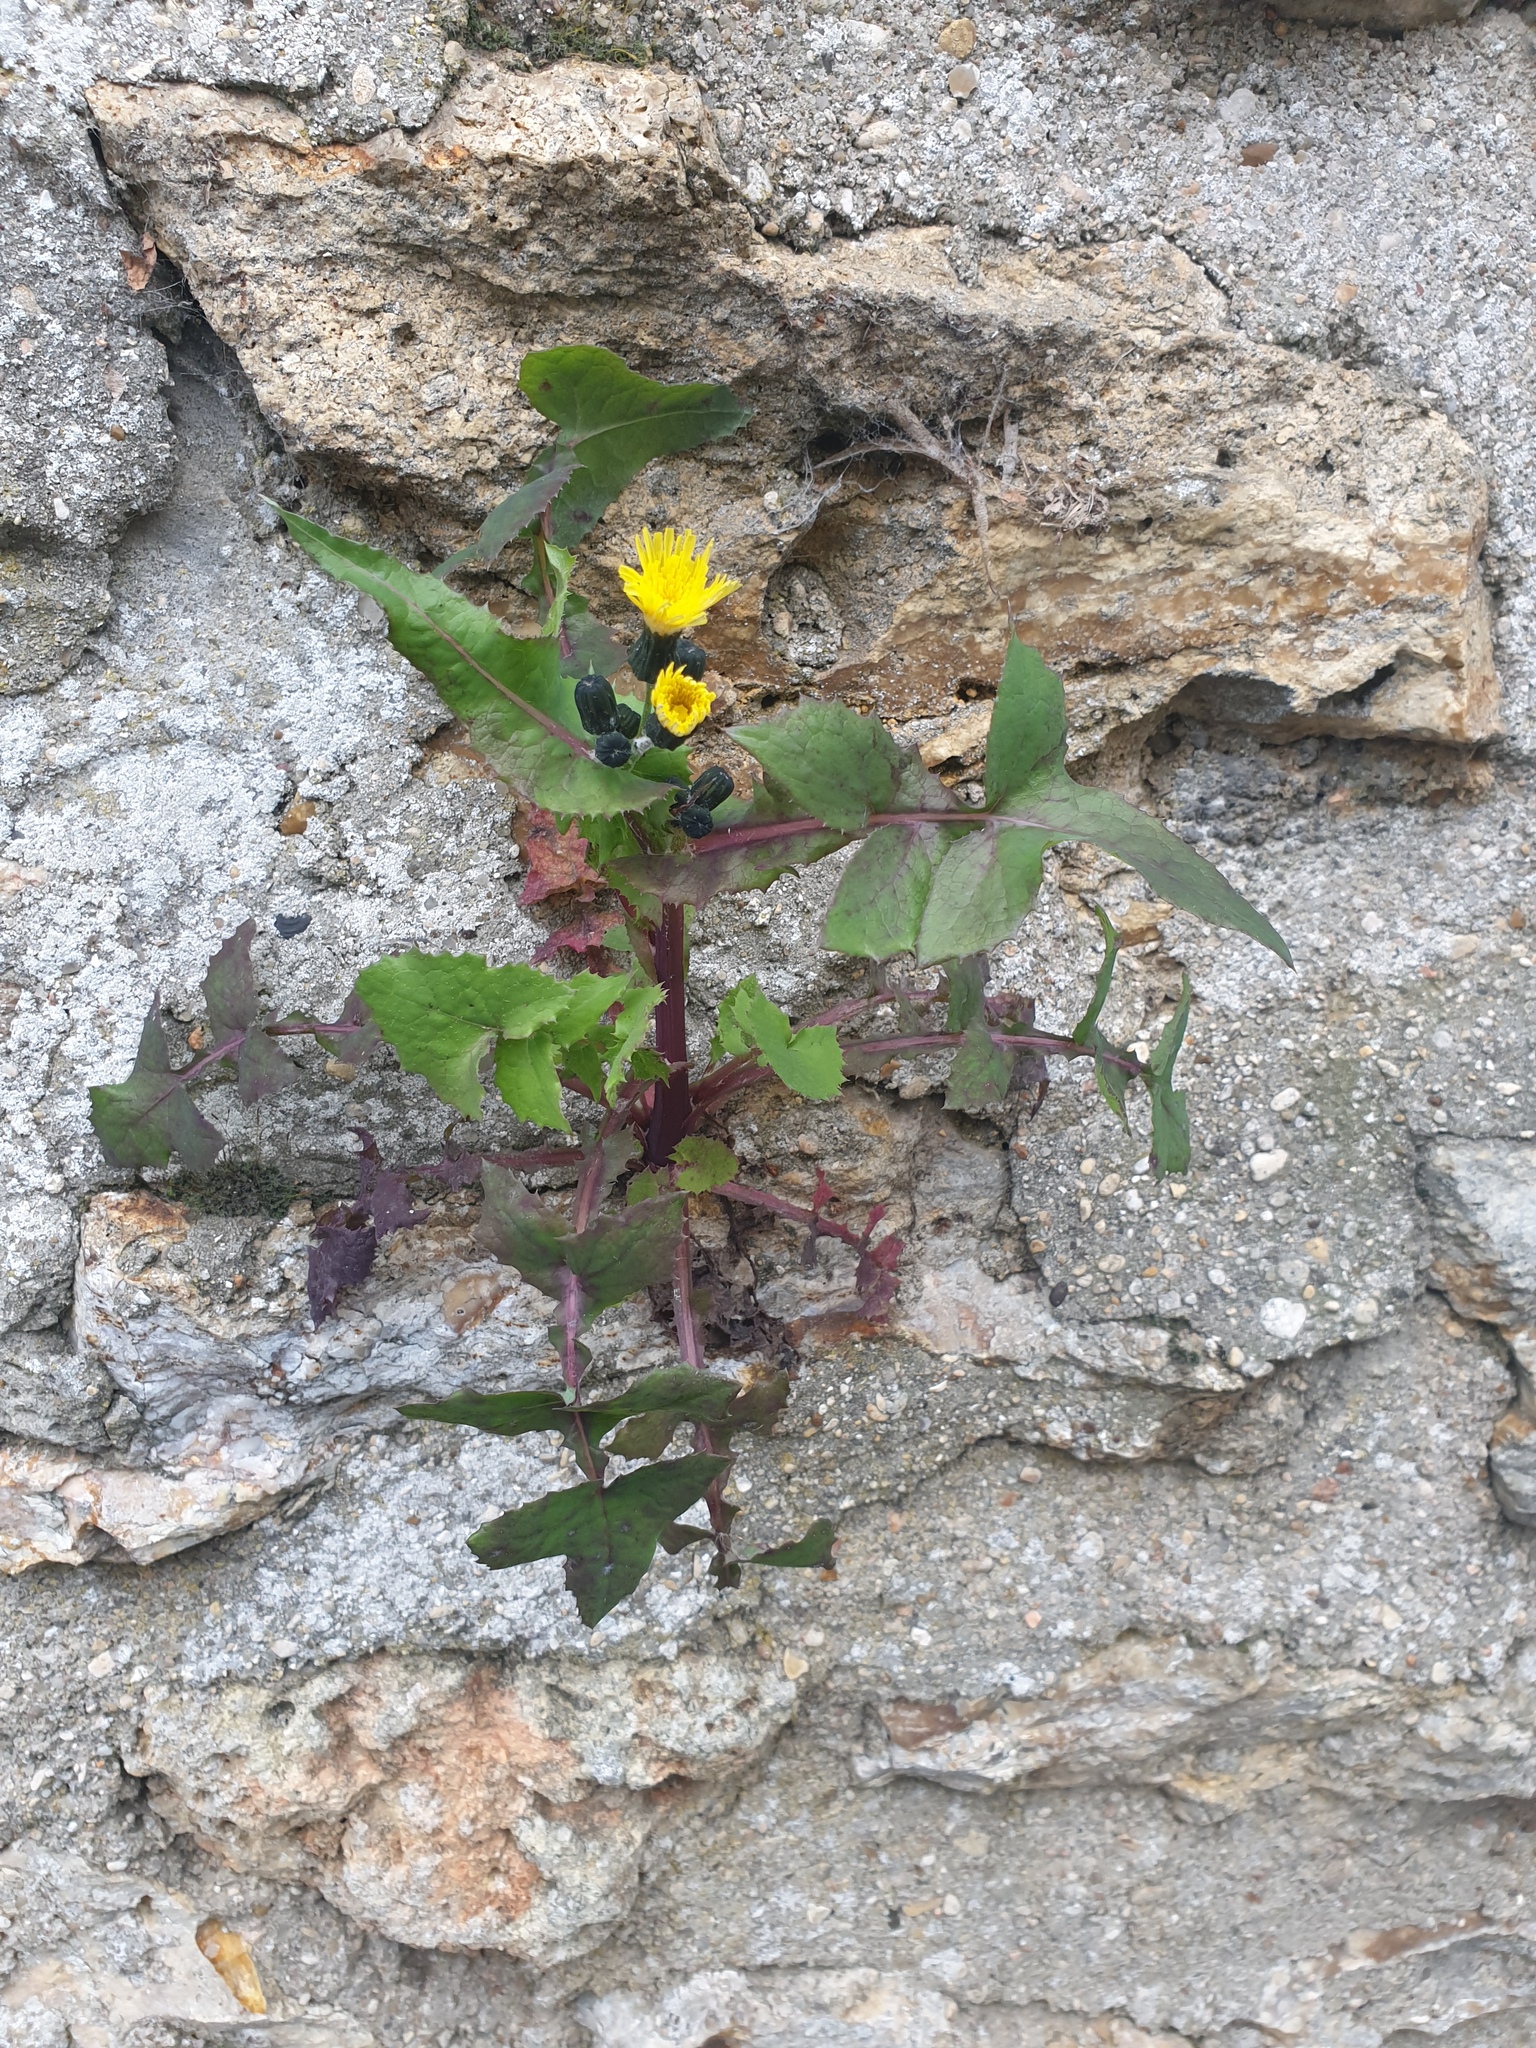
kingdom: Plantae
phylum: Tracheophyta
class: Magnoliopsida
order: Asterales
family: Asteraceae
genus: Sonchus
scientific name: Sonchus oleraceus
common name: Common sowthistle
